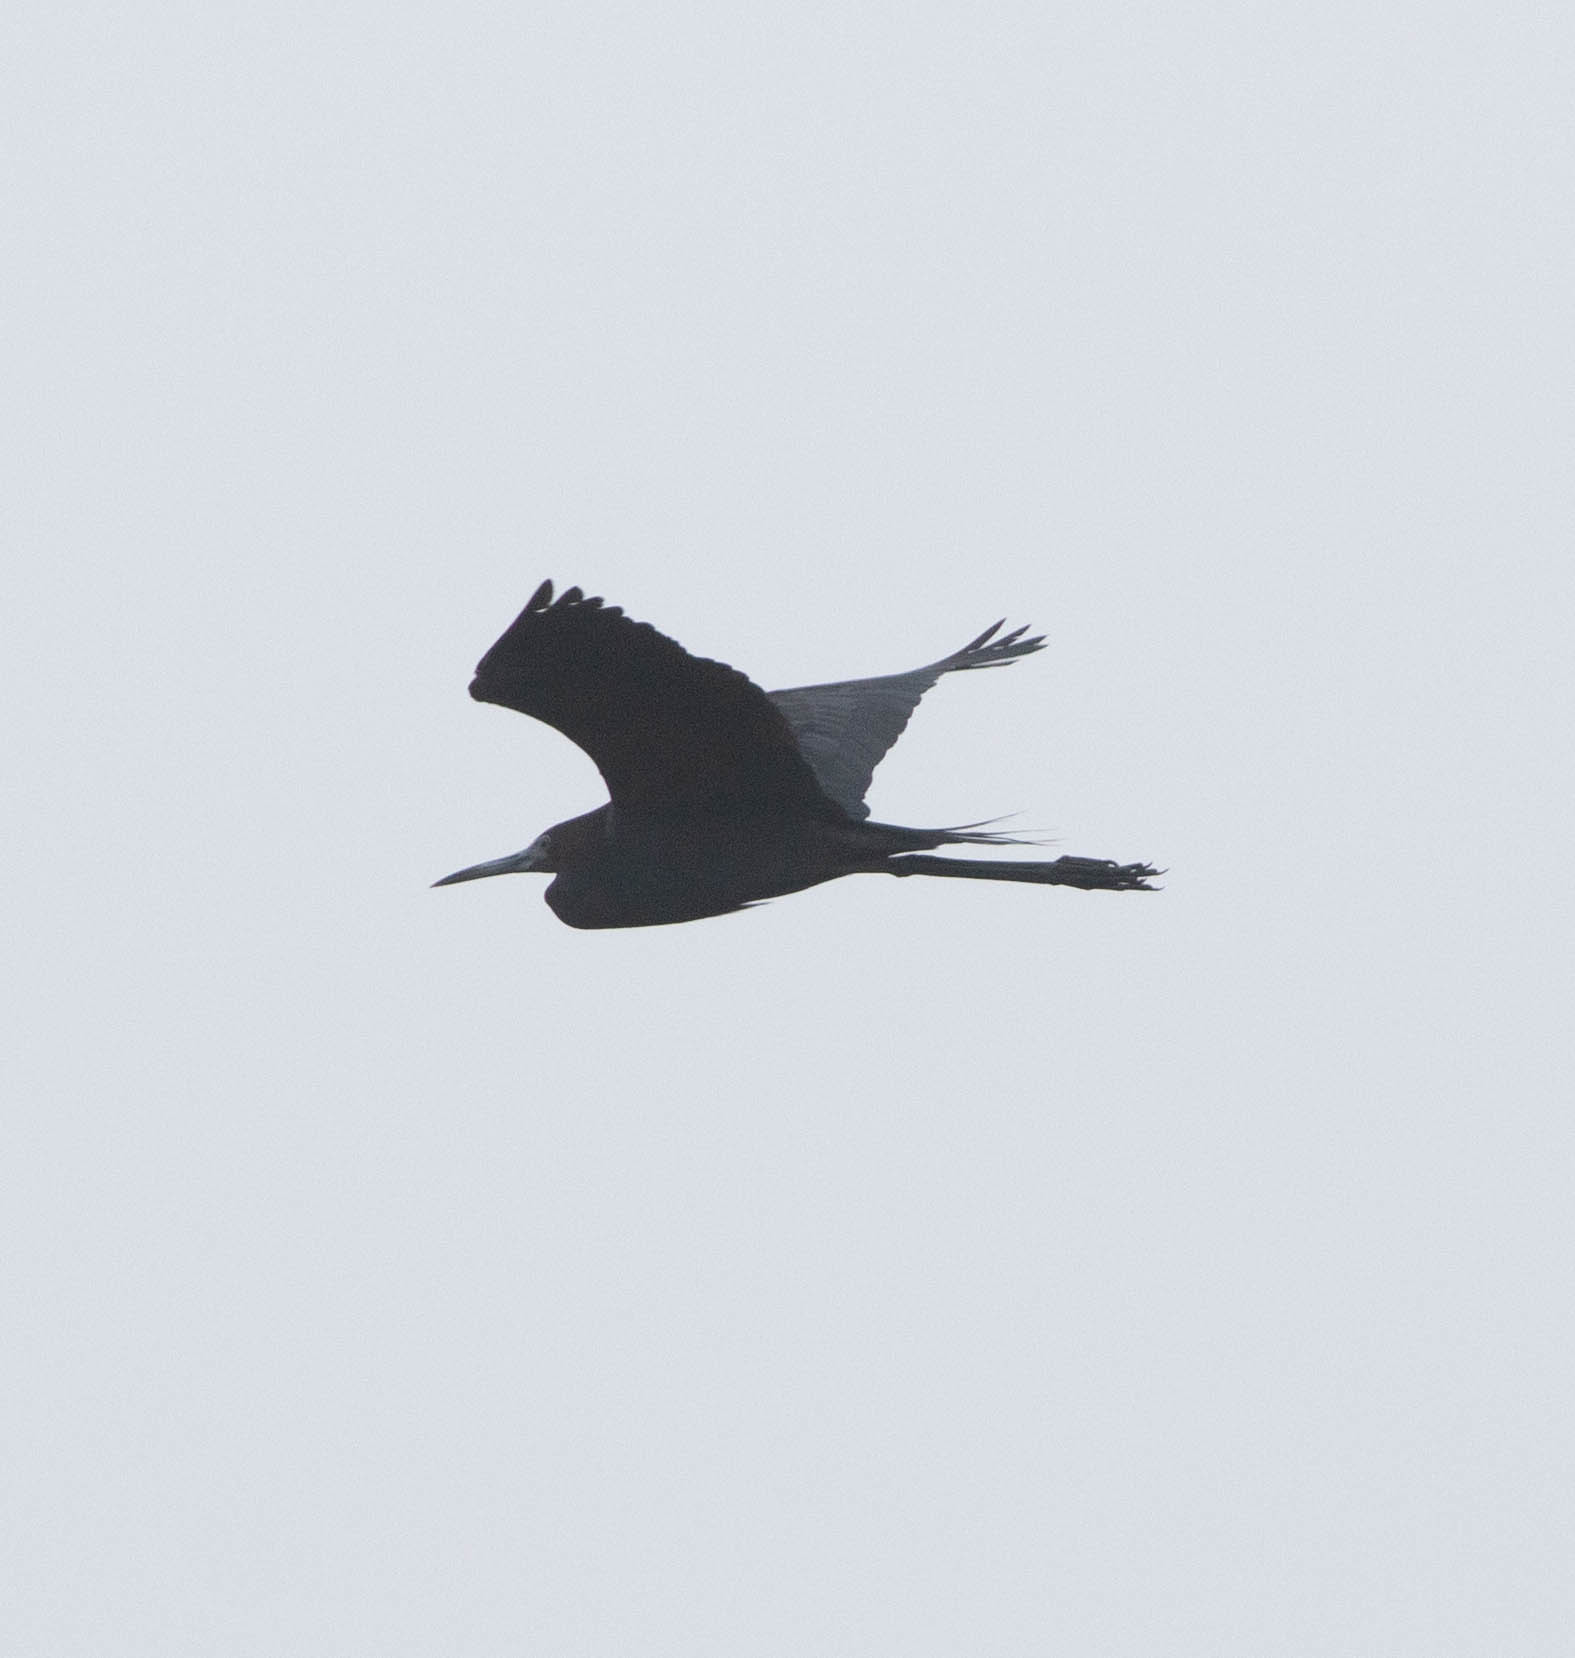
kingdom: Animalia
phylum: Chordata
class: Aves
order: Pelecaniformes
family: Ardeidae
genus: Egretta
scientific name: Egretta caerulea
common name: Little blue heron
